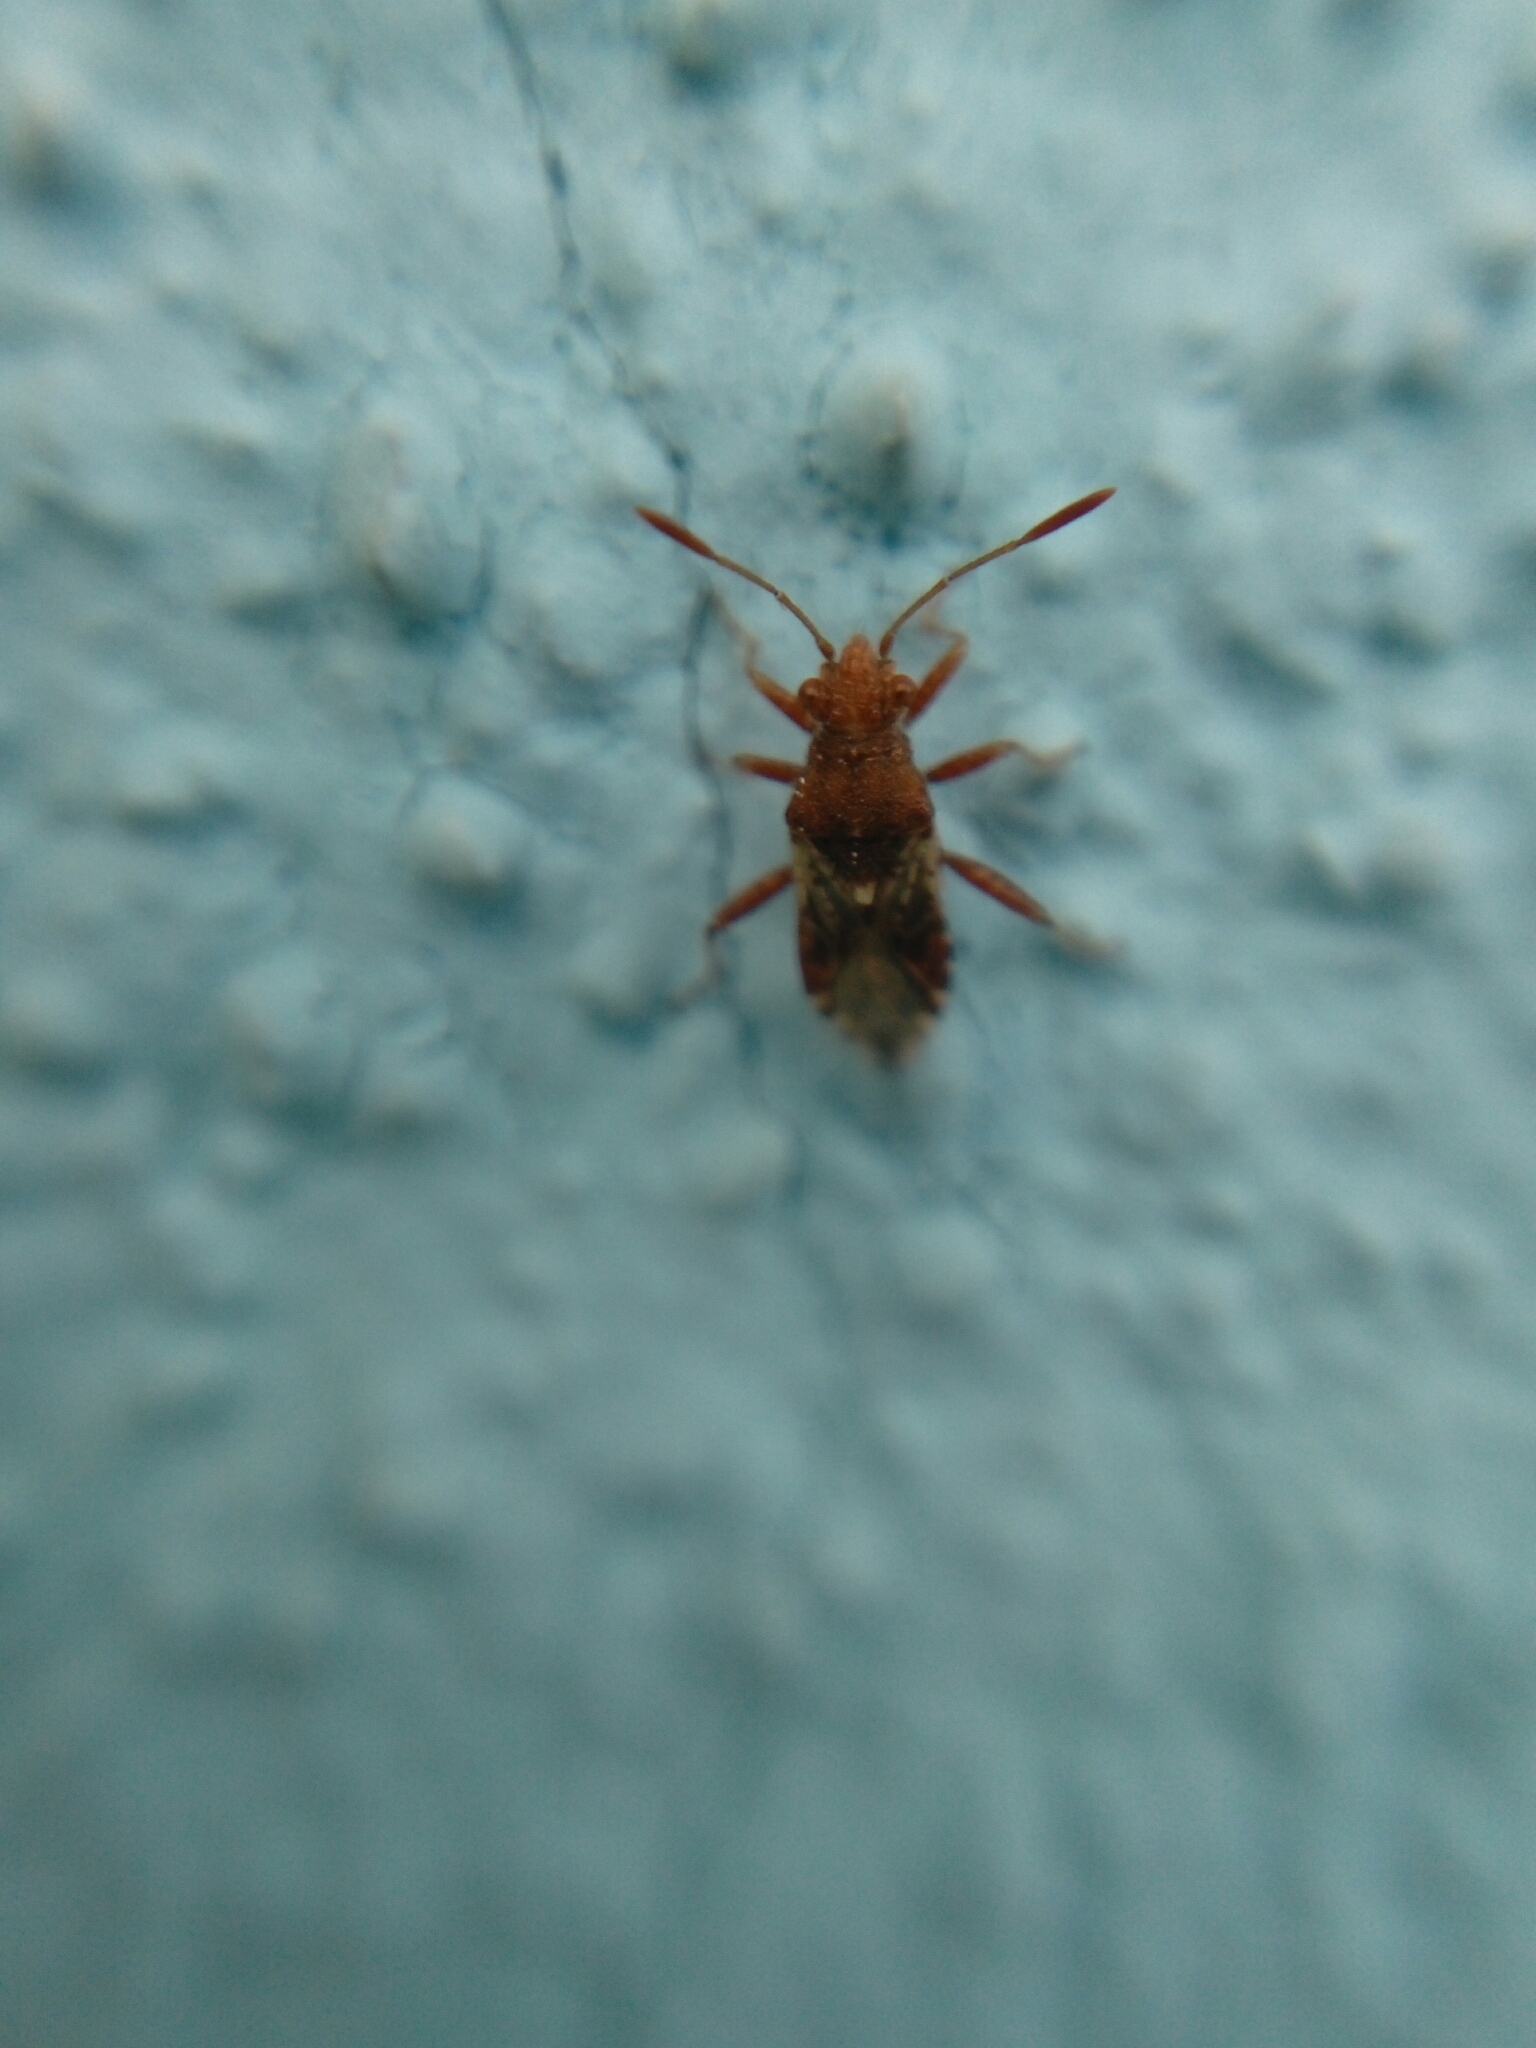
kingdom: Animalia
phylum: Arthropoda
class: Insecta
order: Hemiptera
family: Rhopalidae
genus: Rhopalus
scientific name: Rhopalus subrufus
